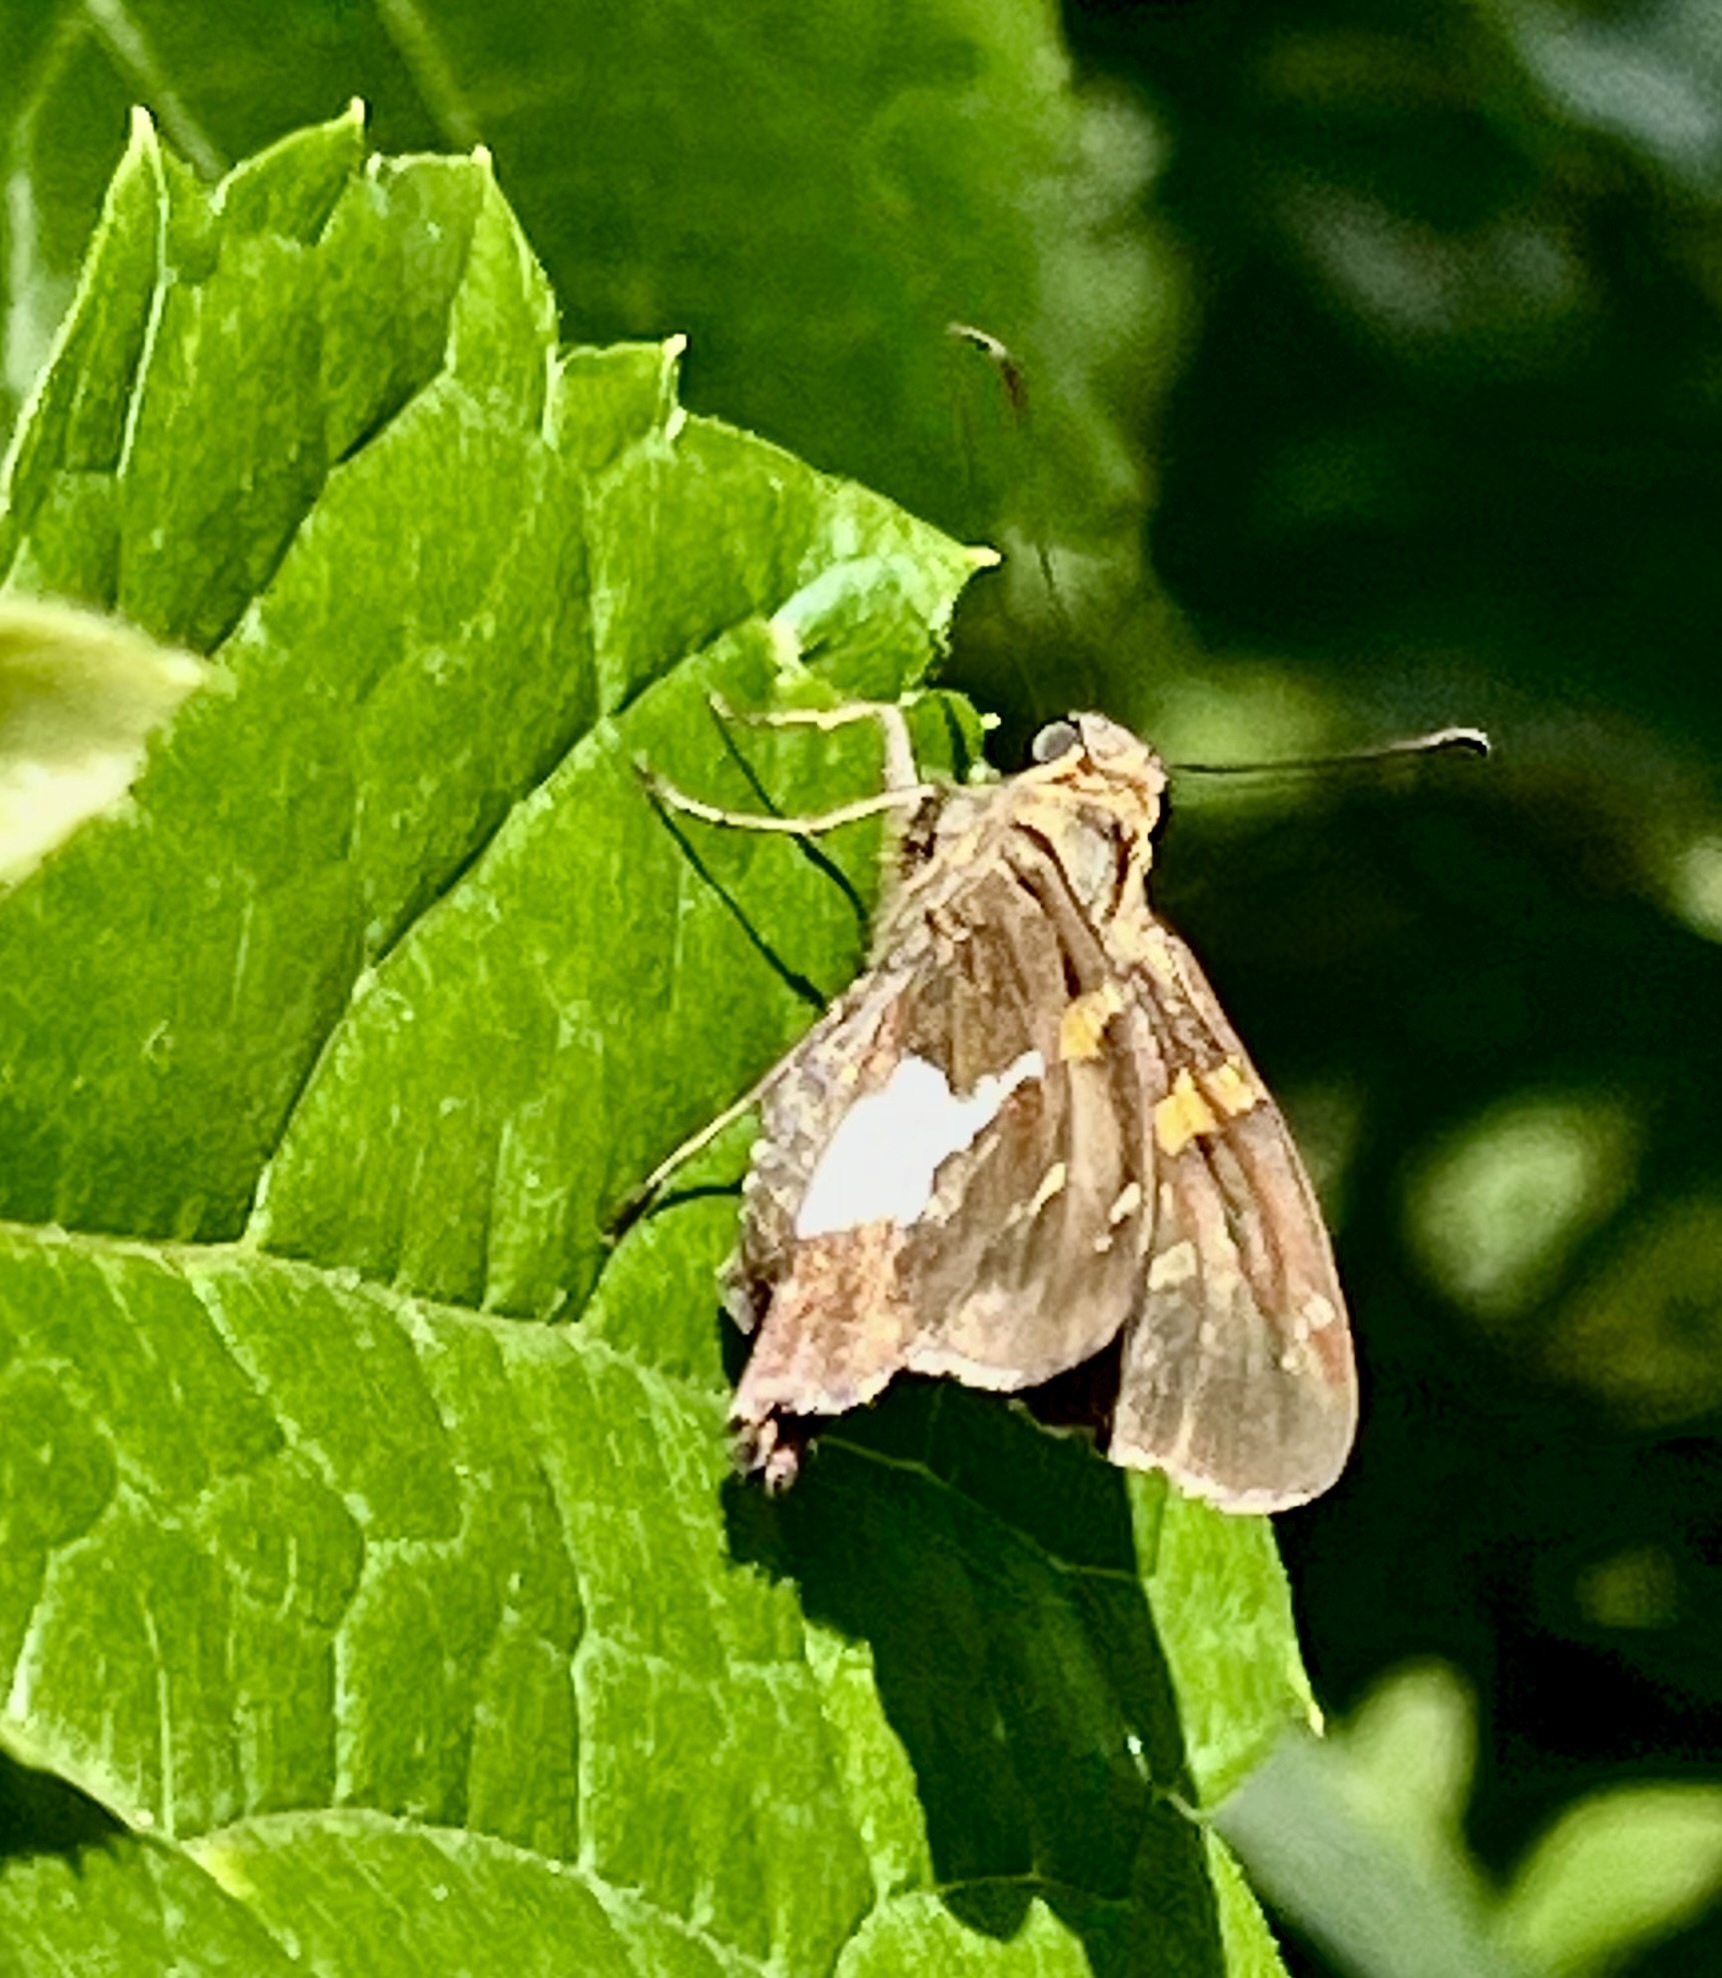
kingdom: Animalia
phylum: Arthropoda
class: Insecta
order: Lepidoptera
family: Hesperiidae
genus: Epargyreus
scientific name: Epargyreus clarus
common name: Silver-spotted skipper
